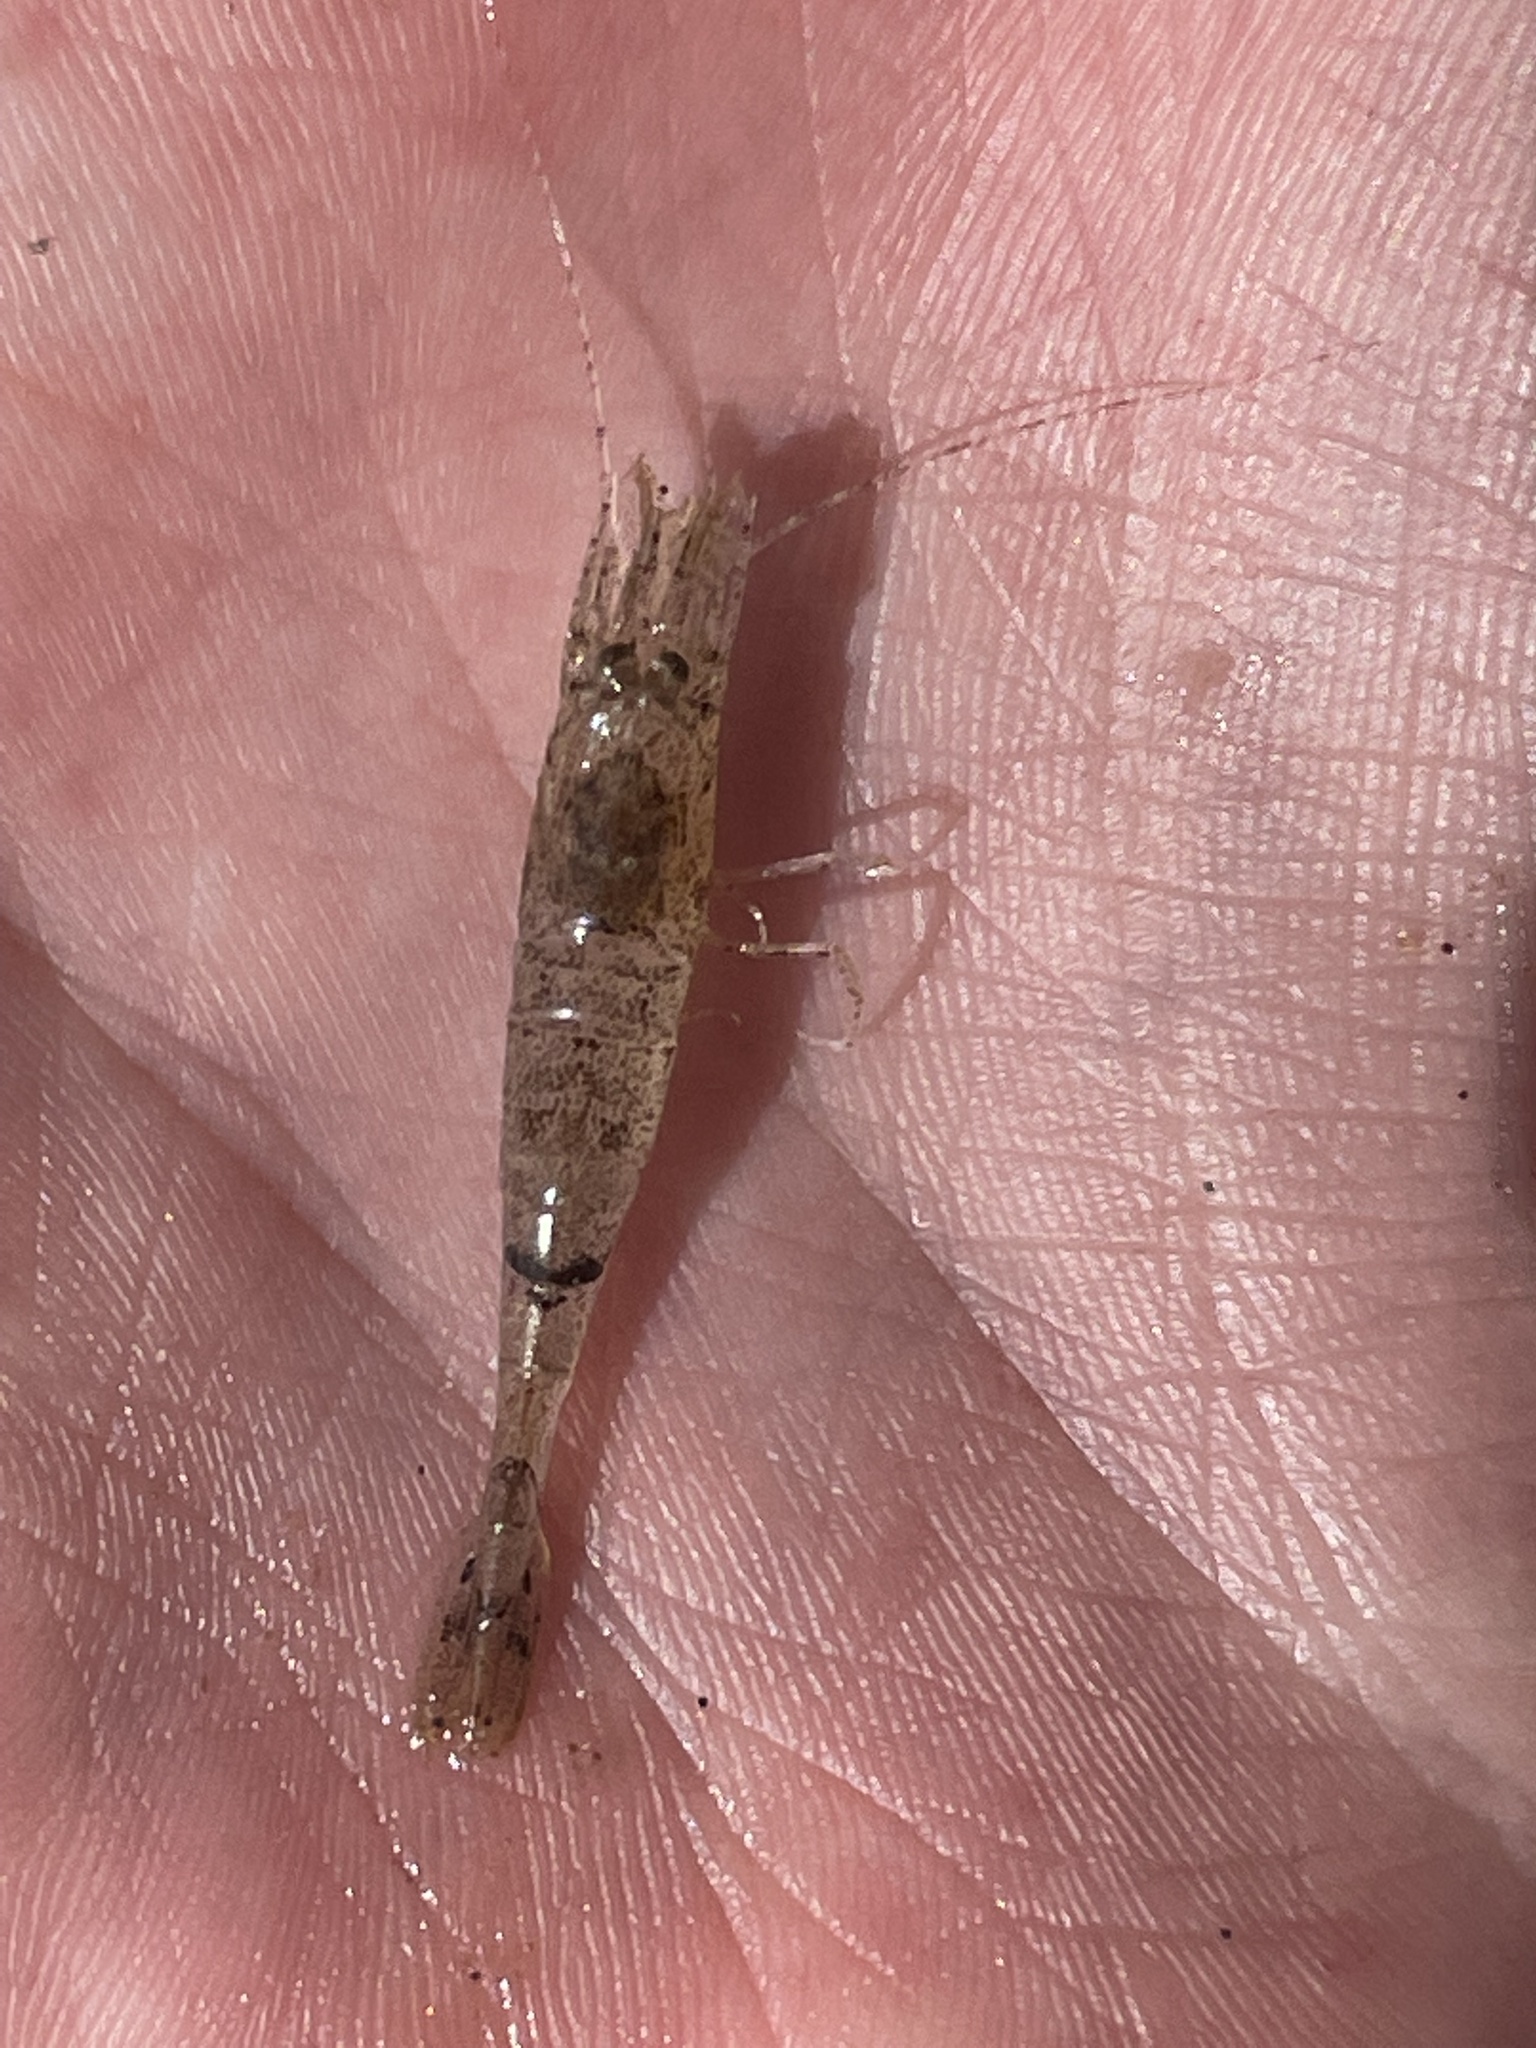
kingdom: Animalia
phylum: Arthropoda
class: Malacostraca
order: Decapoda
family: Crangonidae
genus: Crangon
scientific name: Crangon crangon
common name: Brown shrimp
